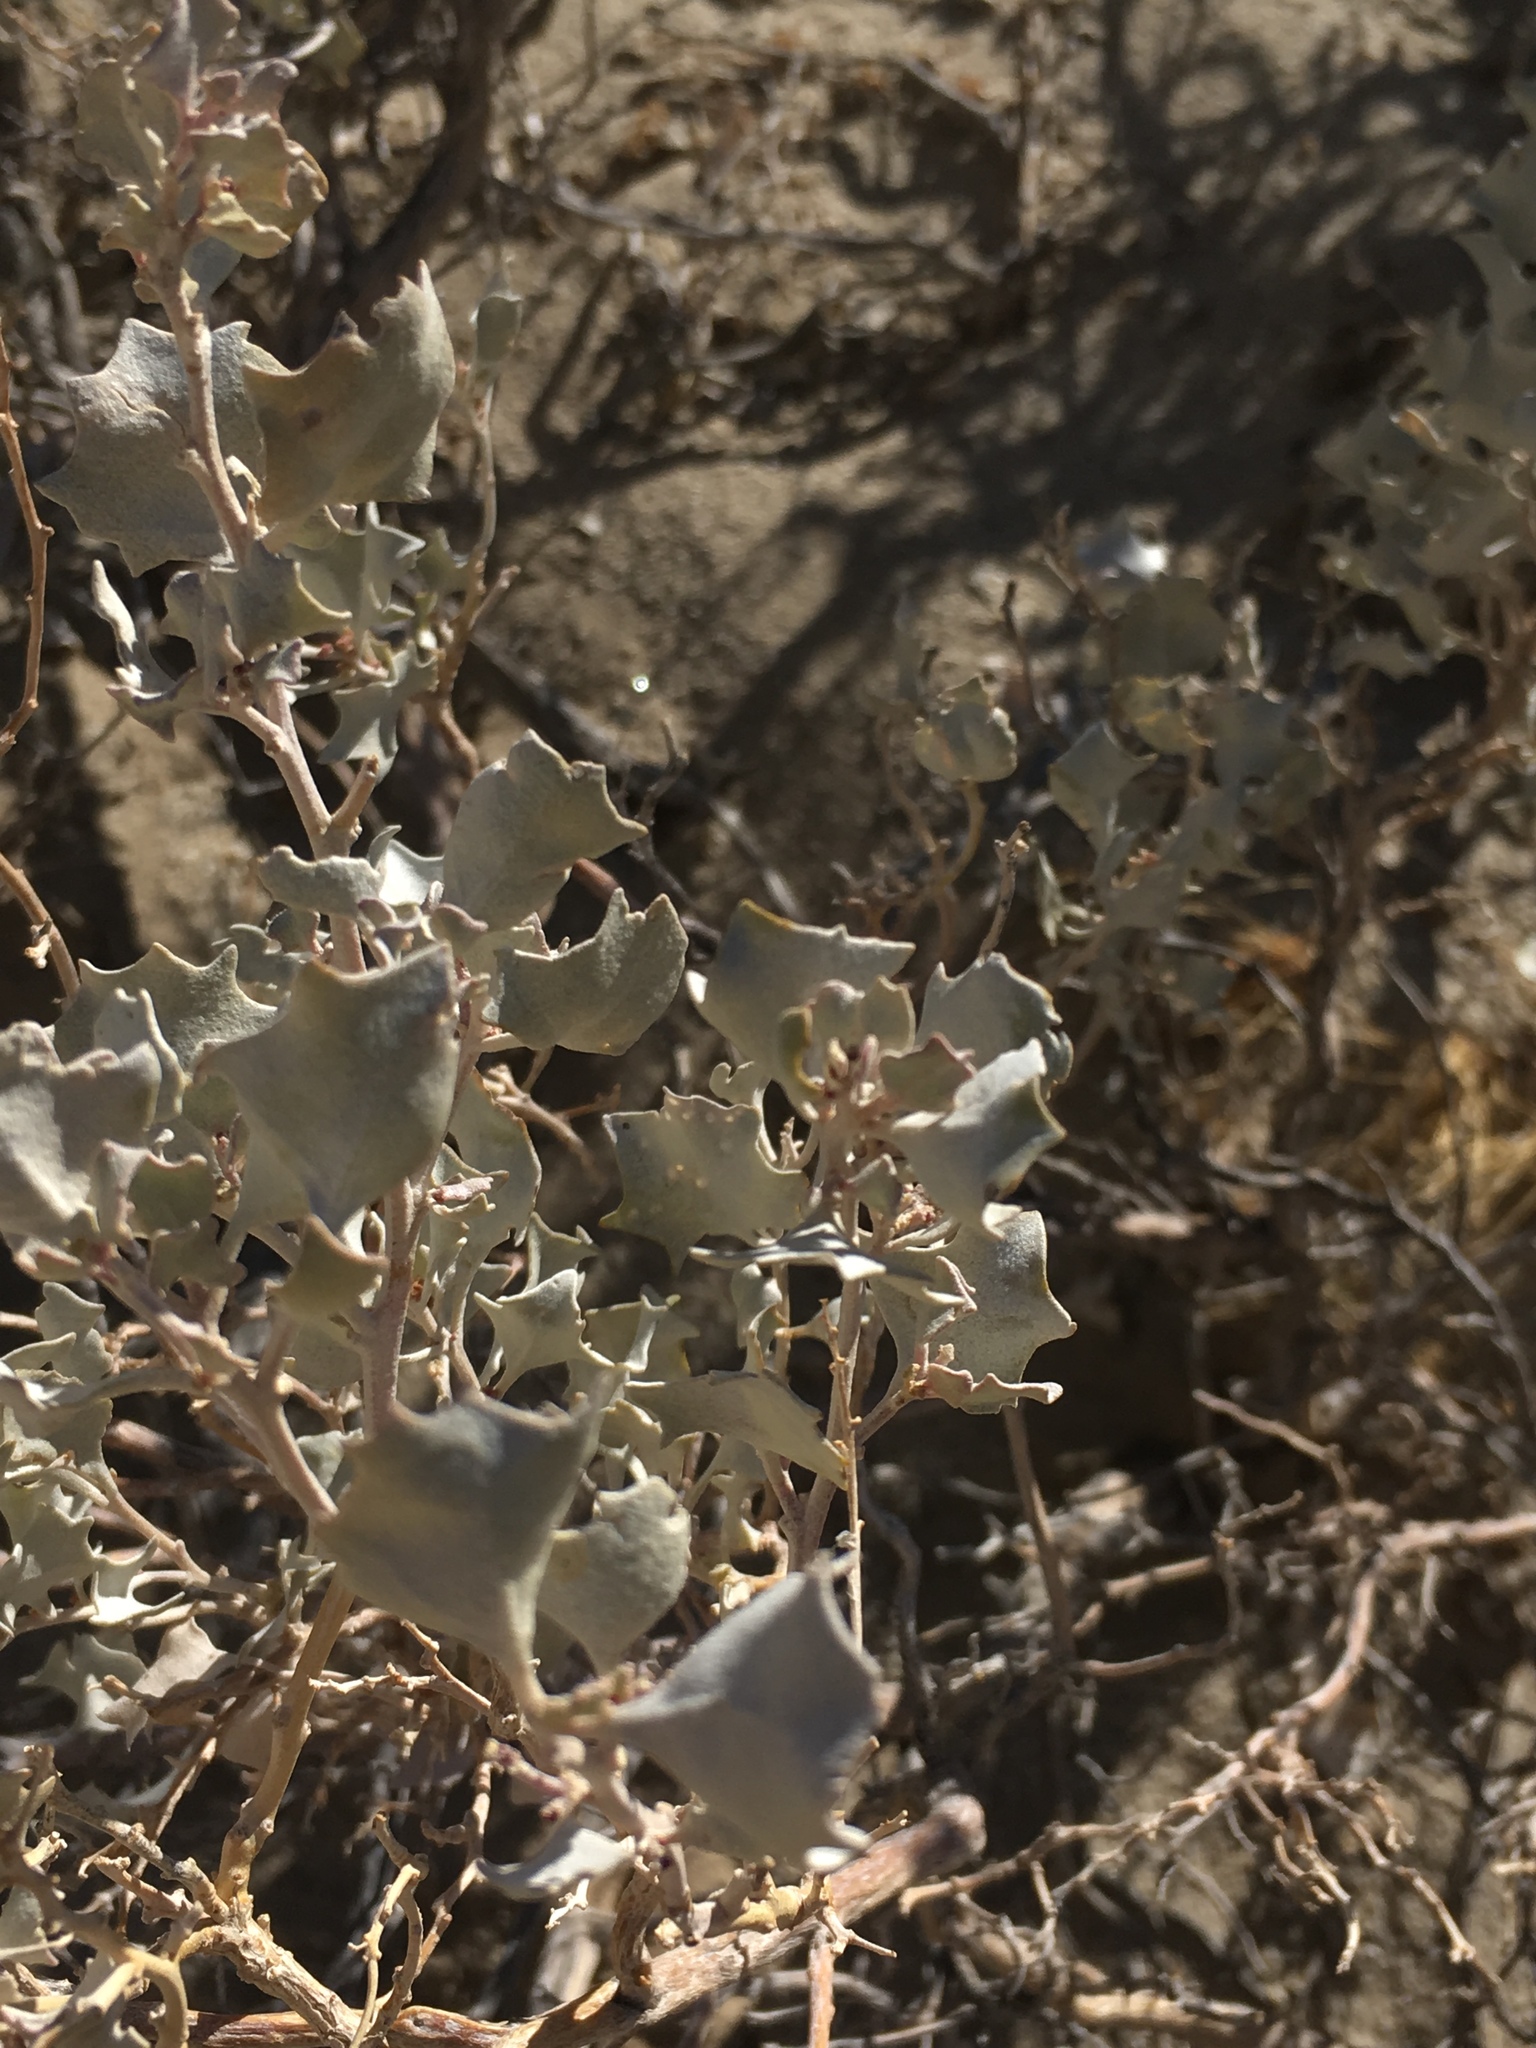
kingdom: Plantae
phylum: Tracheophyta
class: Magnoliopsida
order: Caryophyllales
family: Amaranthaceae
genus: Atriplex
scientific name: Atriplex hymenelytra
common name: Desert-holly
